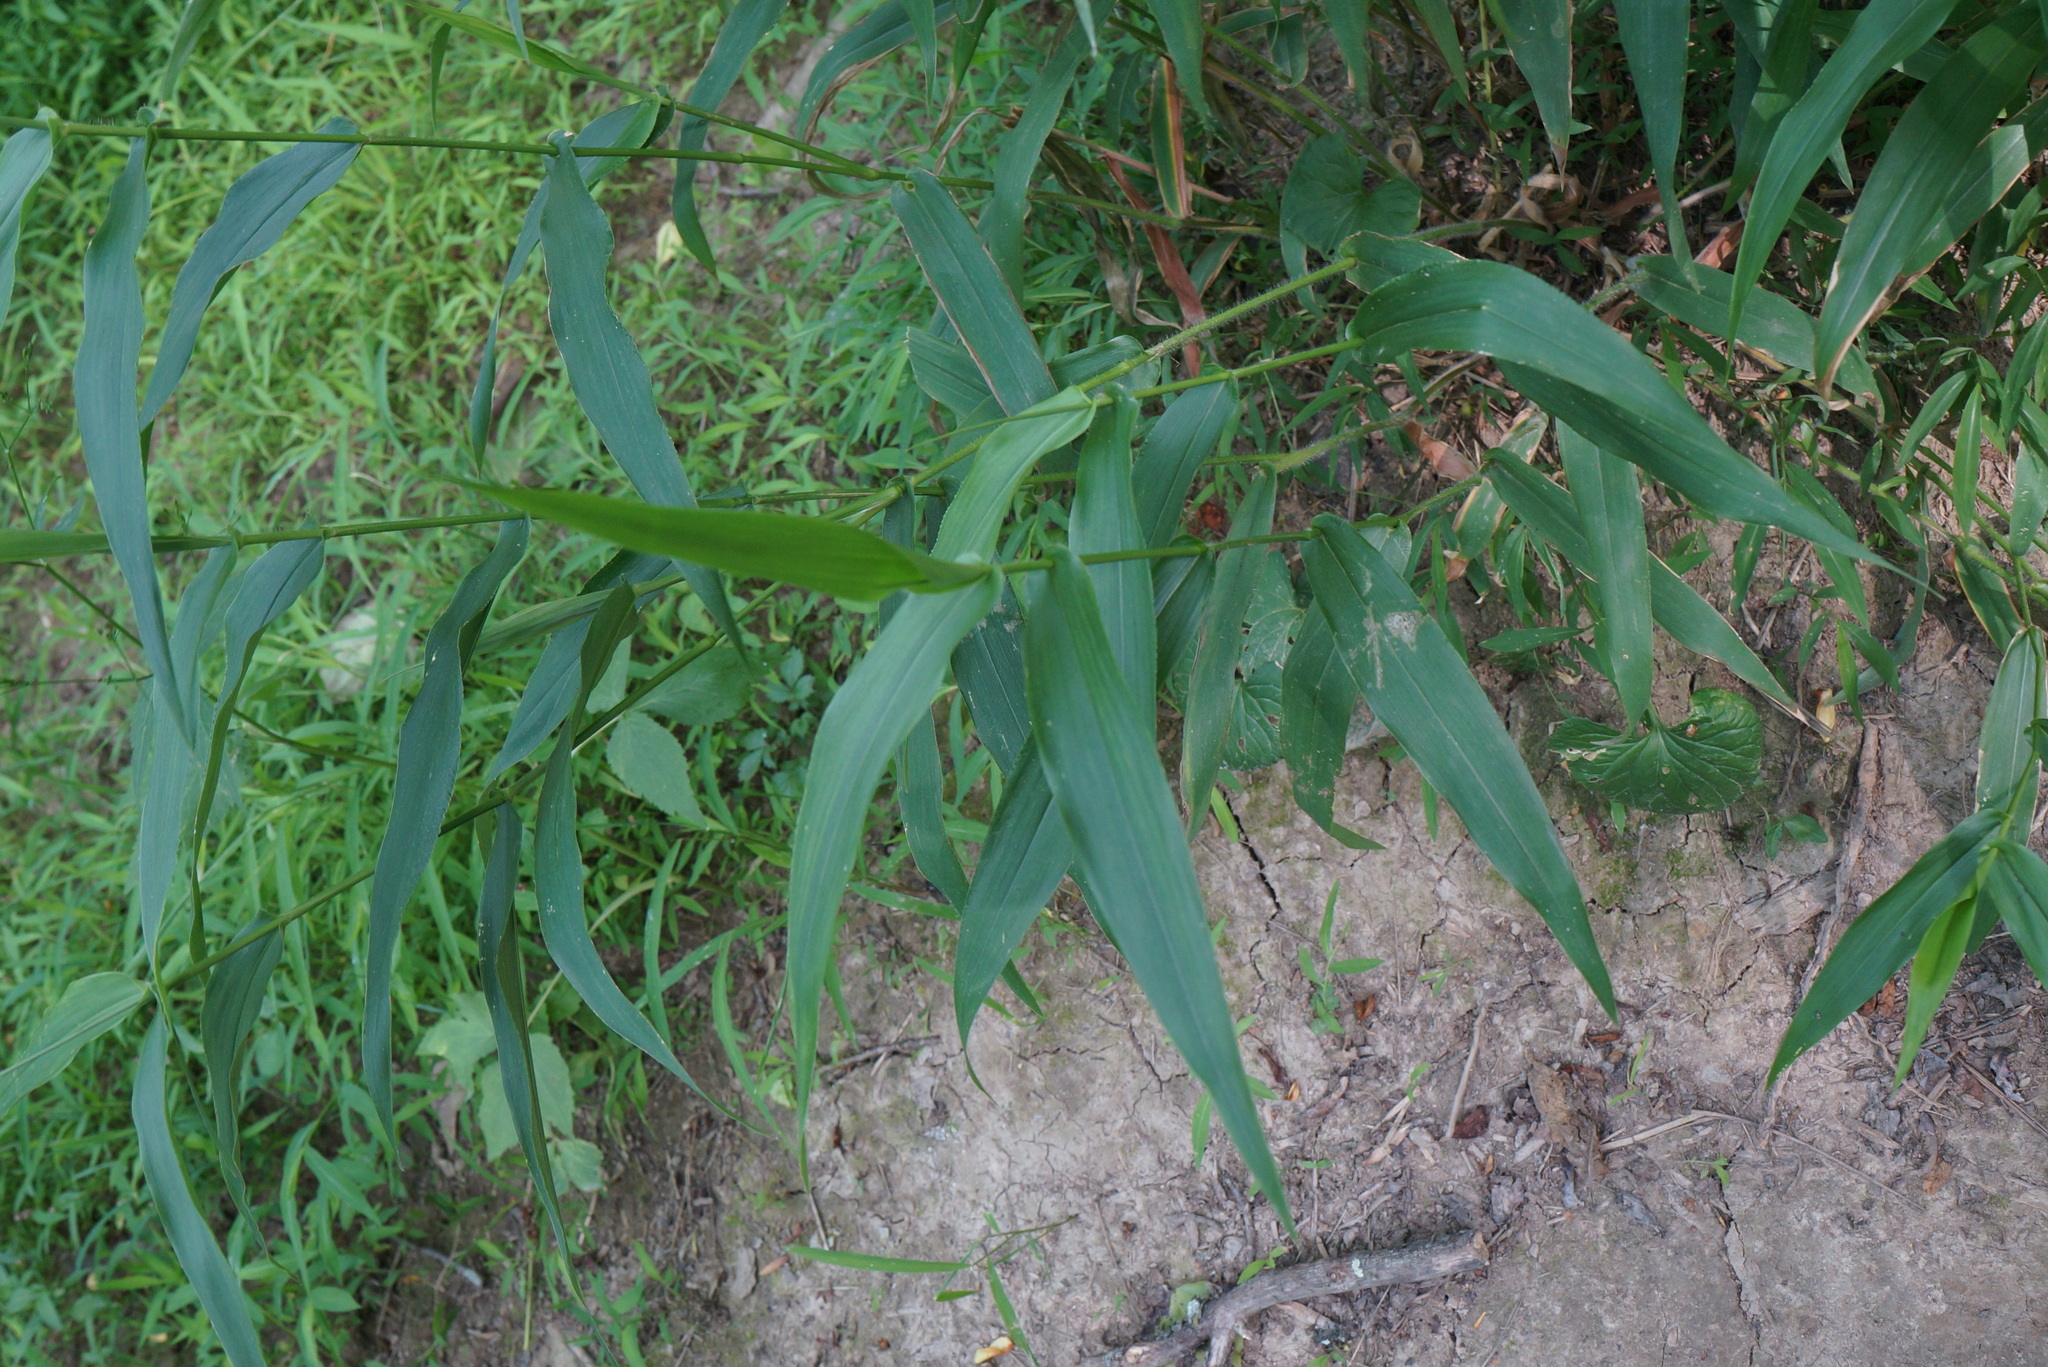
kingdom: Plantae
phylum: Tracheophyta
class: Liliopsida
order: Poales
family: Poaceae
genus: Dichanthelium
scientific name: Dichanthelium clandestinum
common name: Deer-tongue grass
